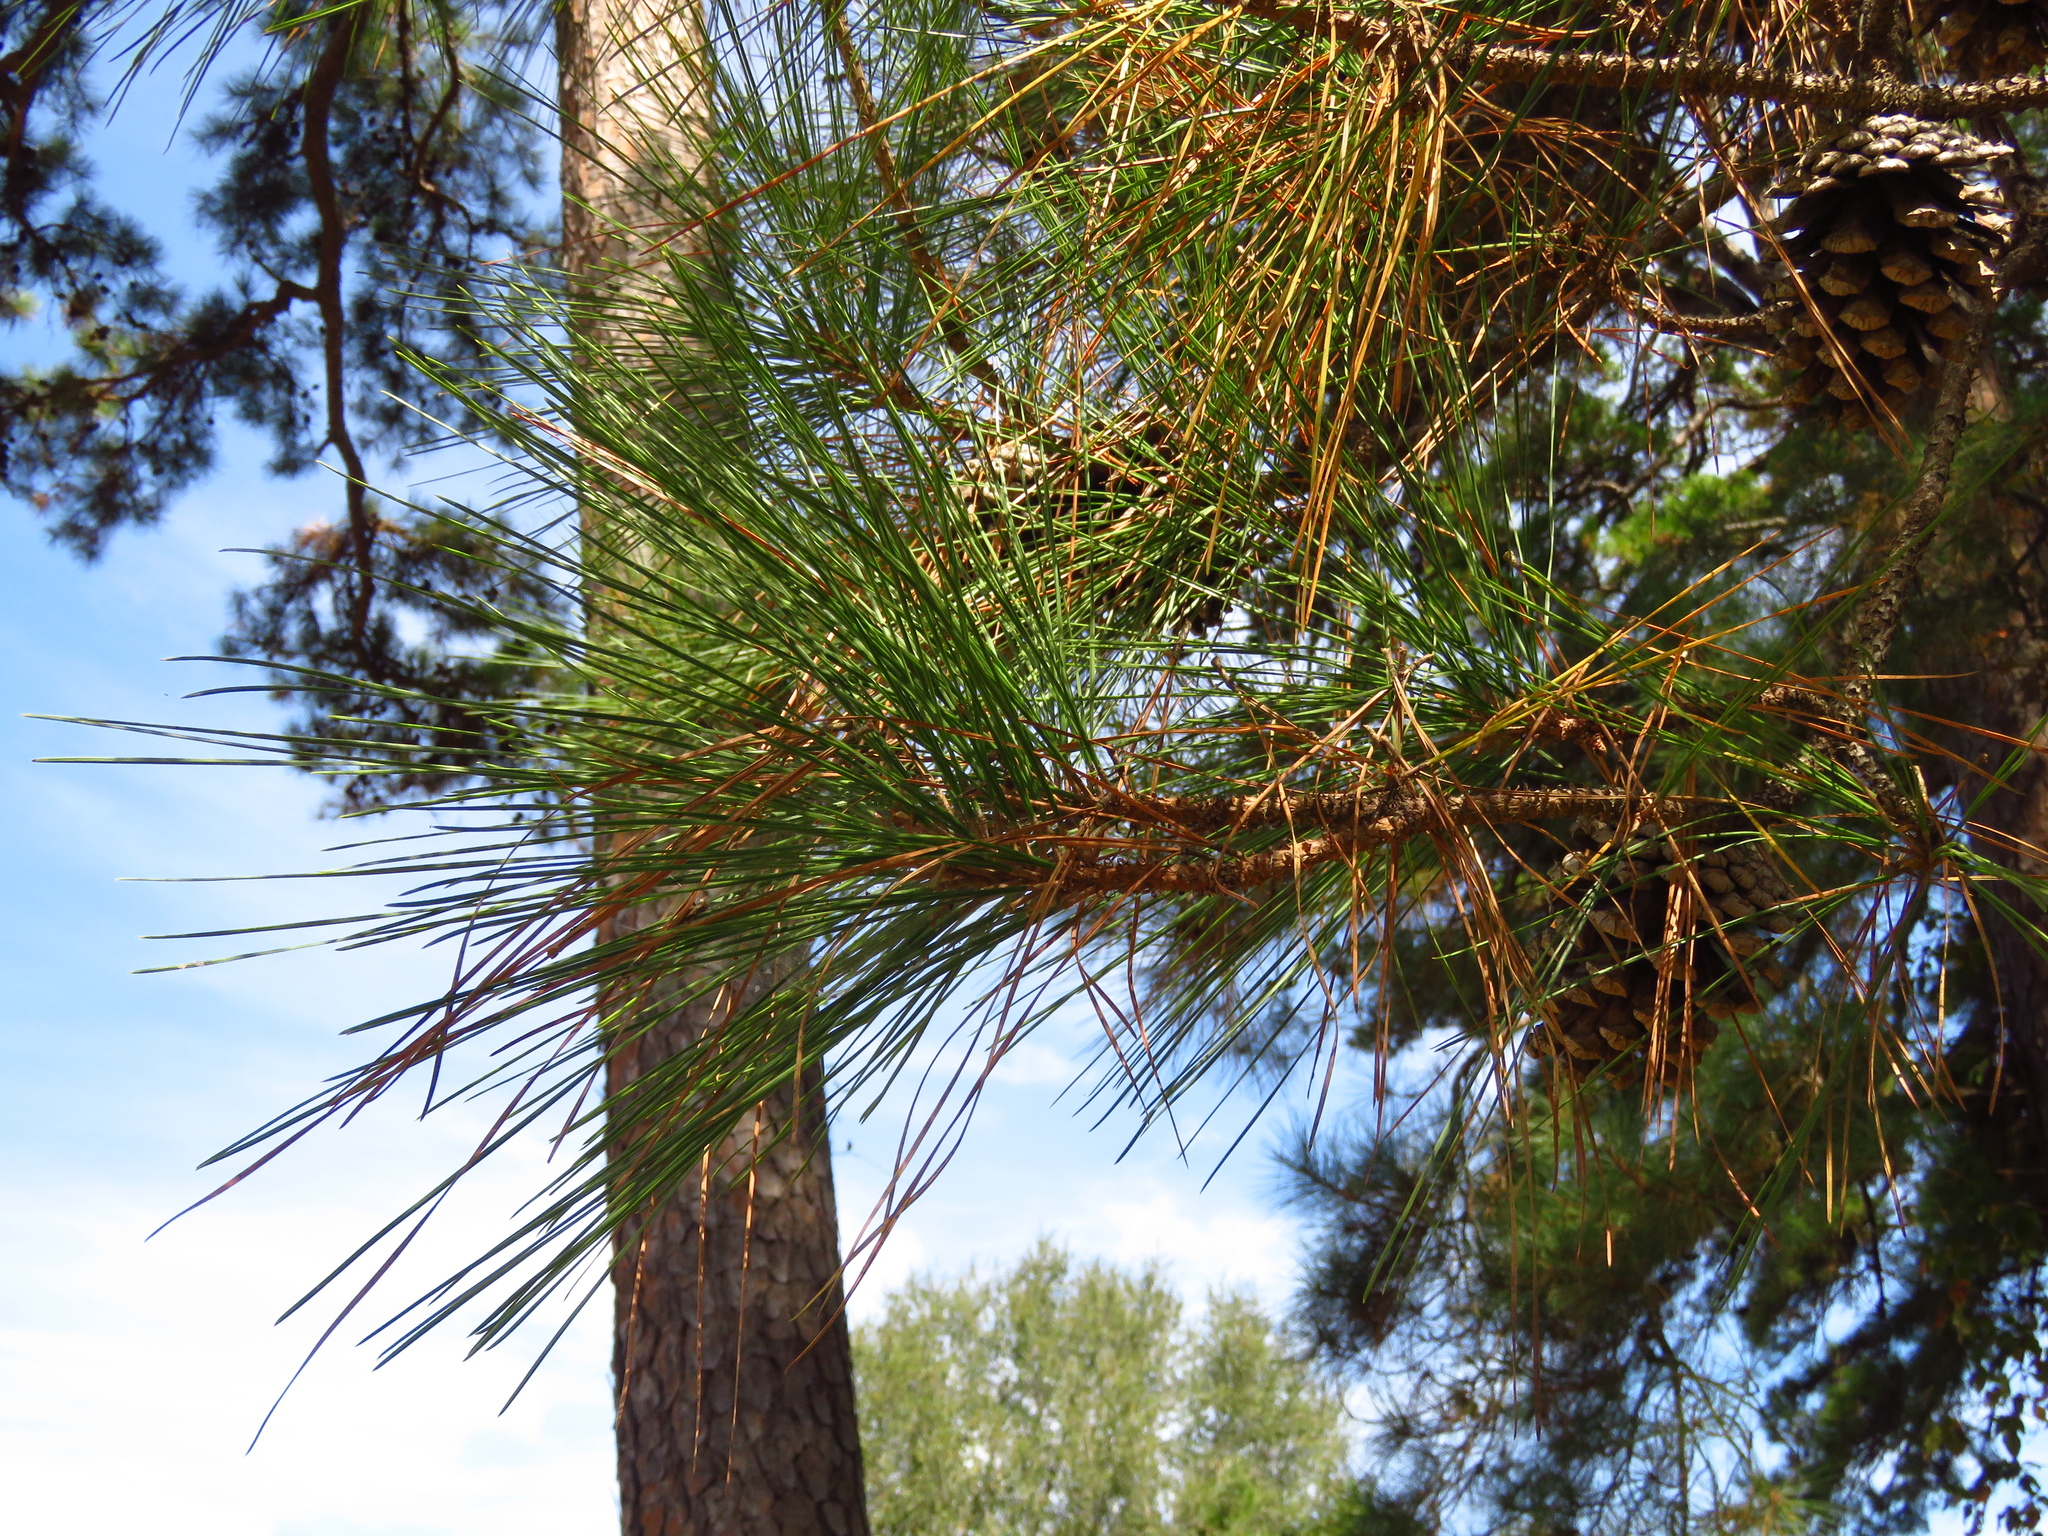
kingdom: Plantae
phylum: Tracheophyta
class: Pinopsida
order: Pinales
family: Pinaceae
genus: Pinus
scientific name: Pinus taeda
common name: Loblolly pine
